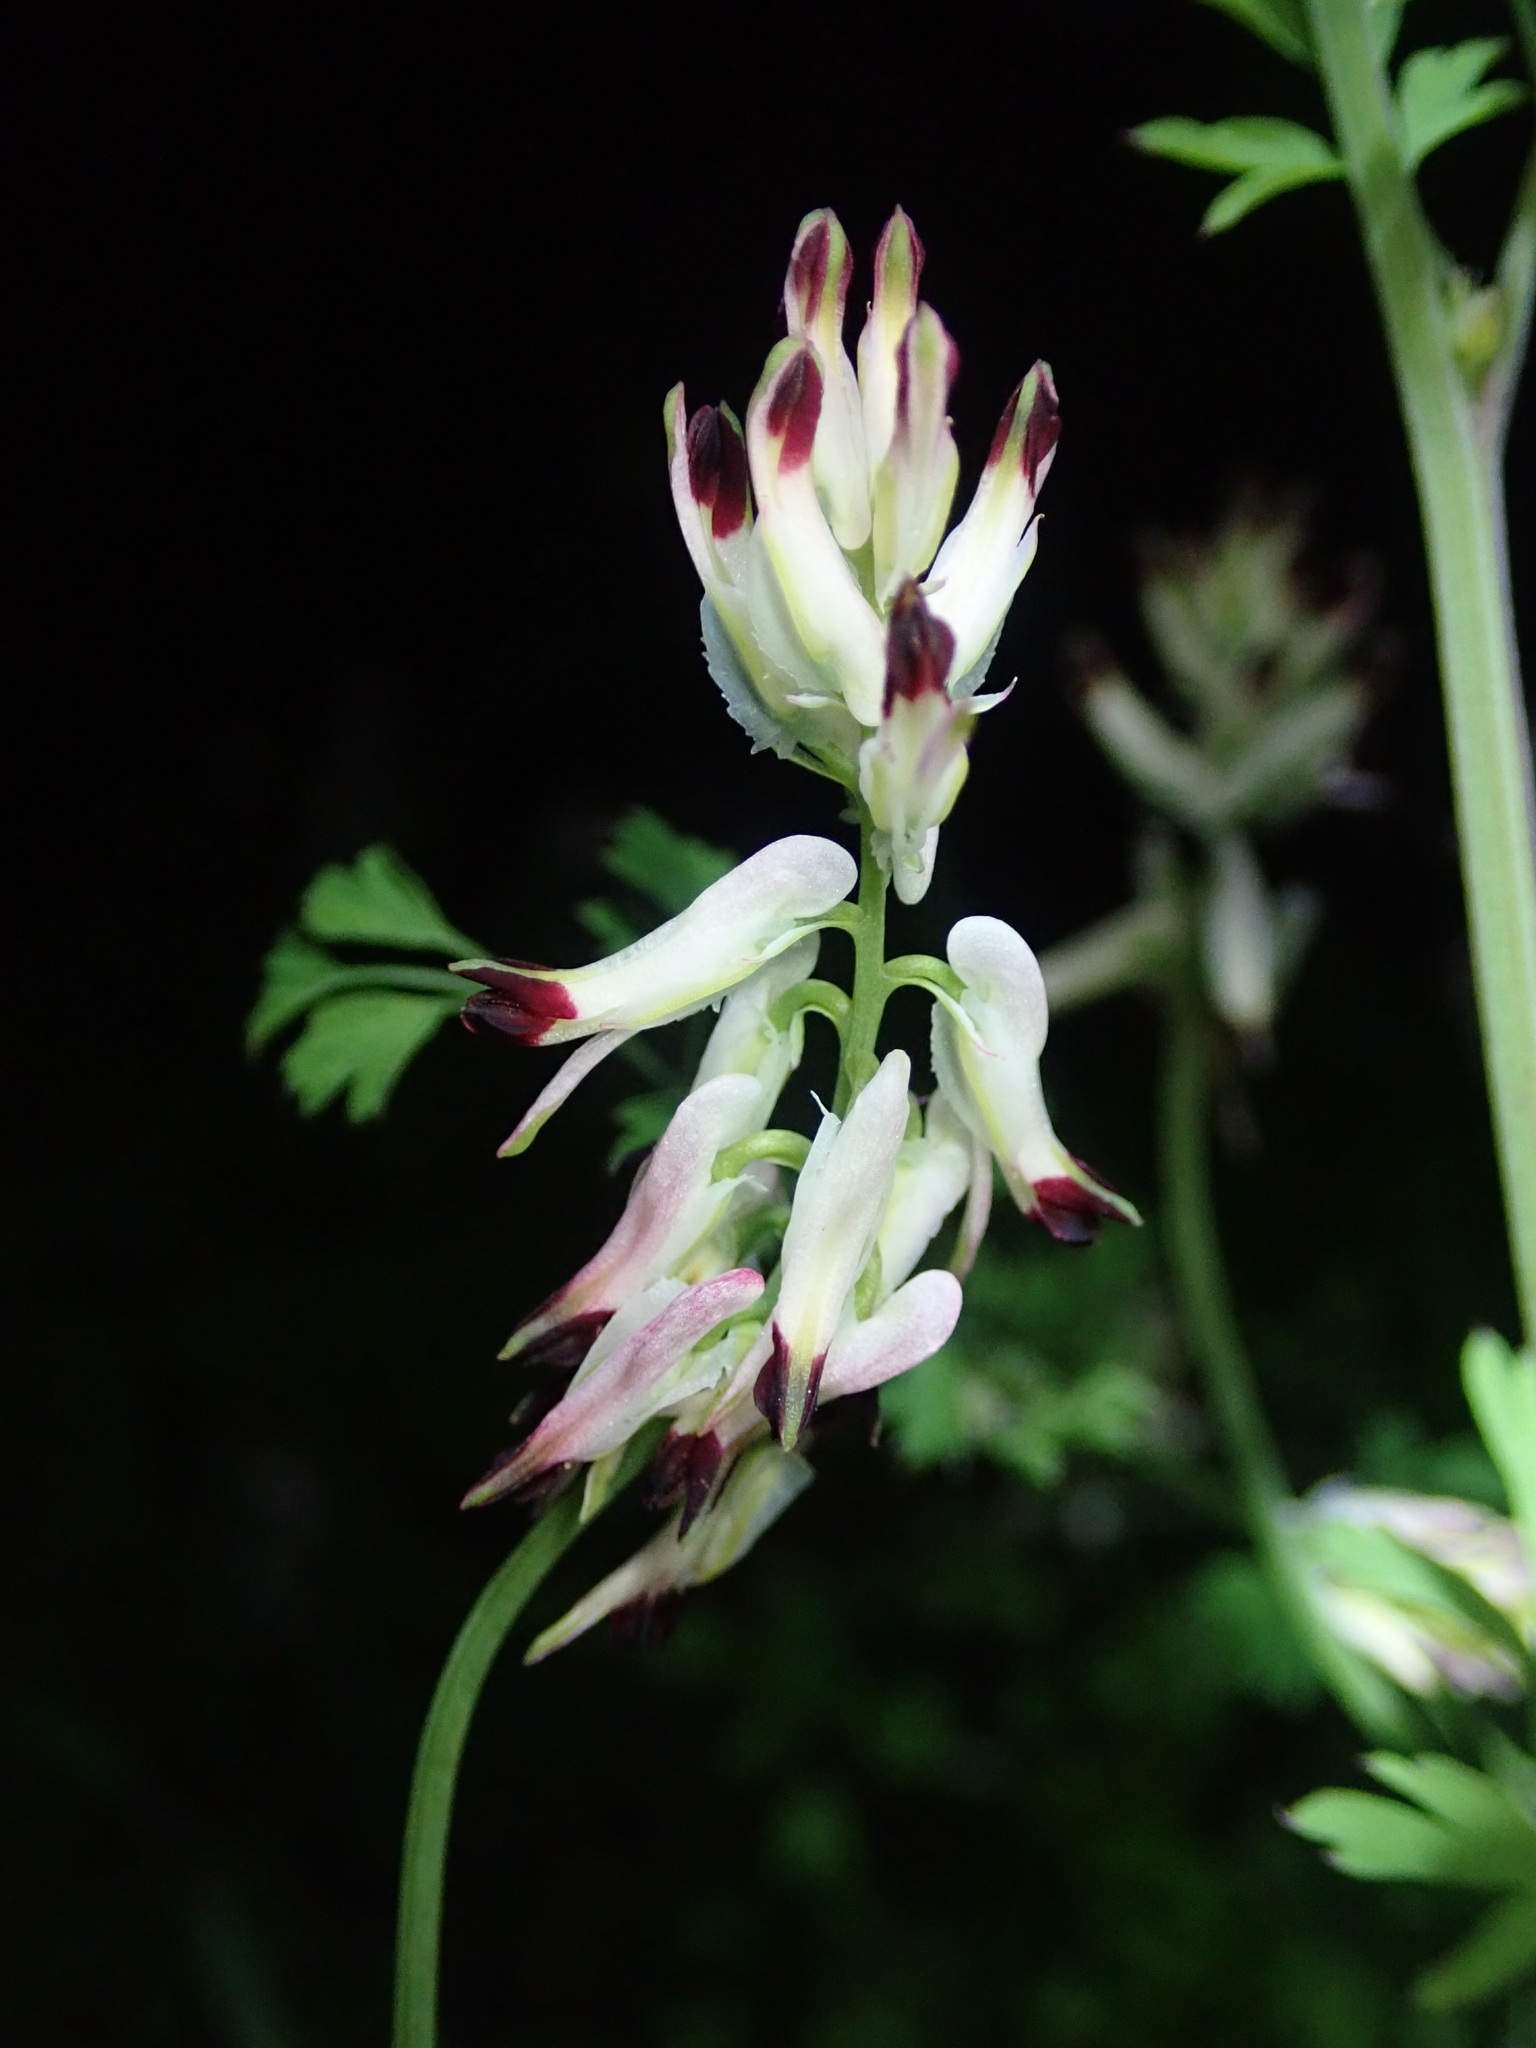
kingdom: Plantae
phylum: Tracheophyta
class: Magnoliopsida
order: Ranunculales
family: Papaveraceae
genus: Fumaria
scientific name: Fumaria capreolata
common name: White ramping-fumitory
